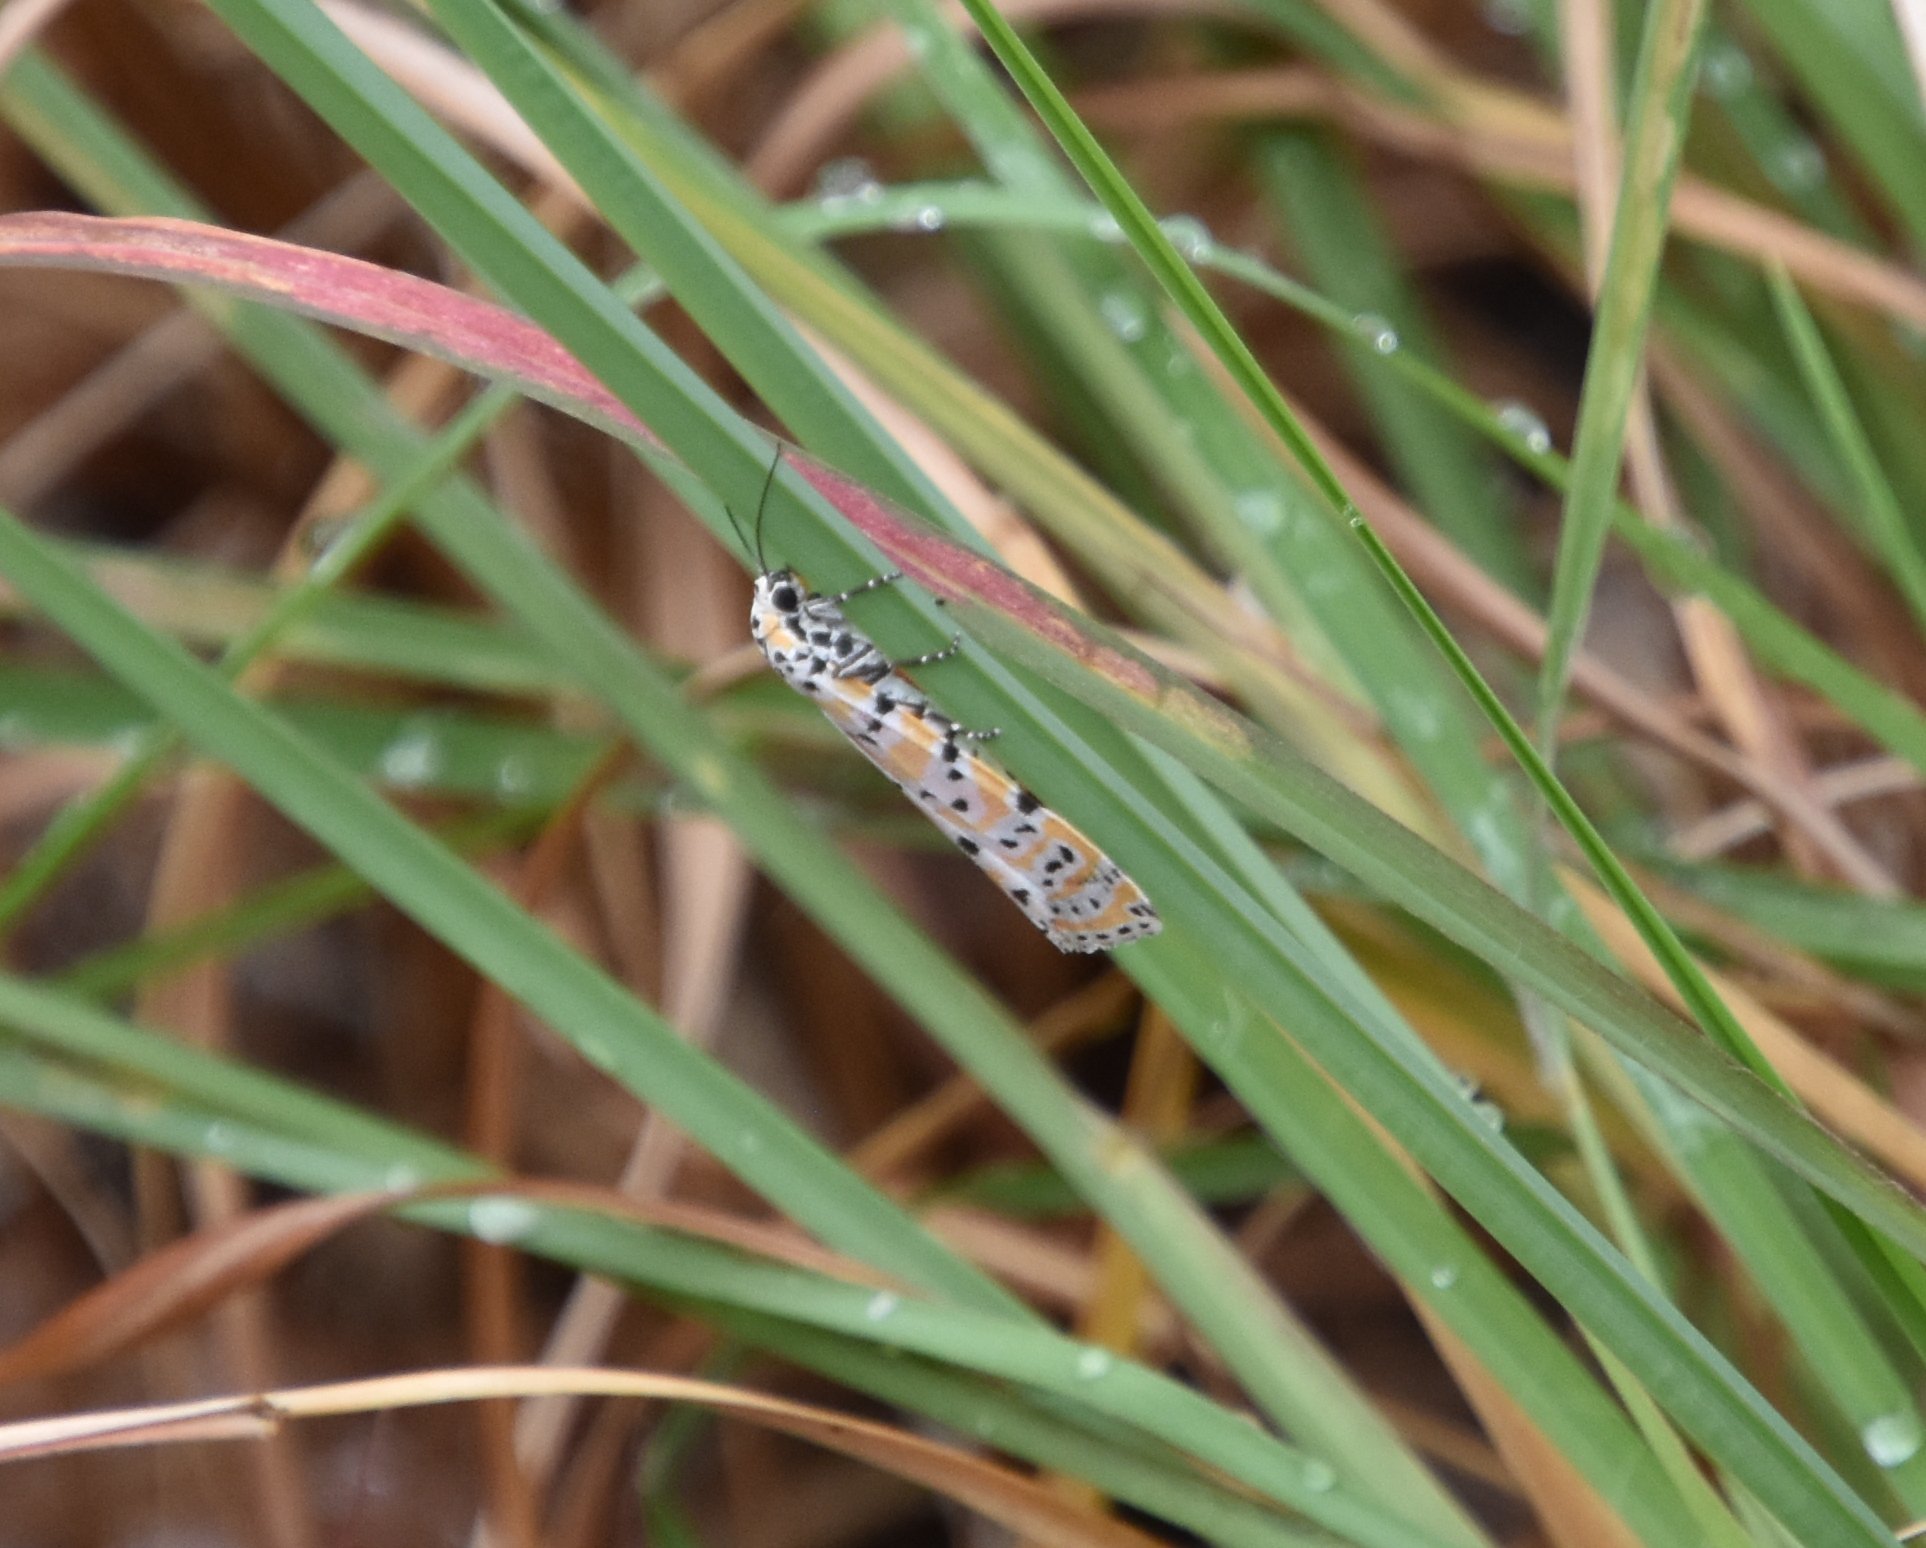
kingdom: Animalia
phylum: Arthropoda
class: Insecta
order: Lepidoptera
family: Erebidae
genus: Utetheisa
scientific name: Utetheisa ornatrix
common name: Beautiful utetheisa
